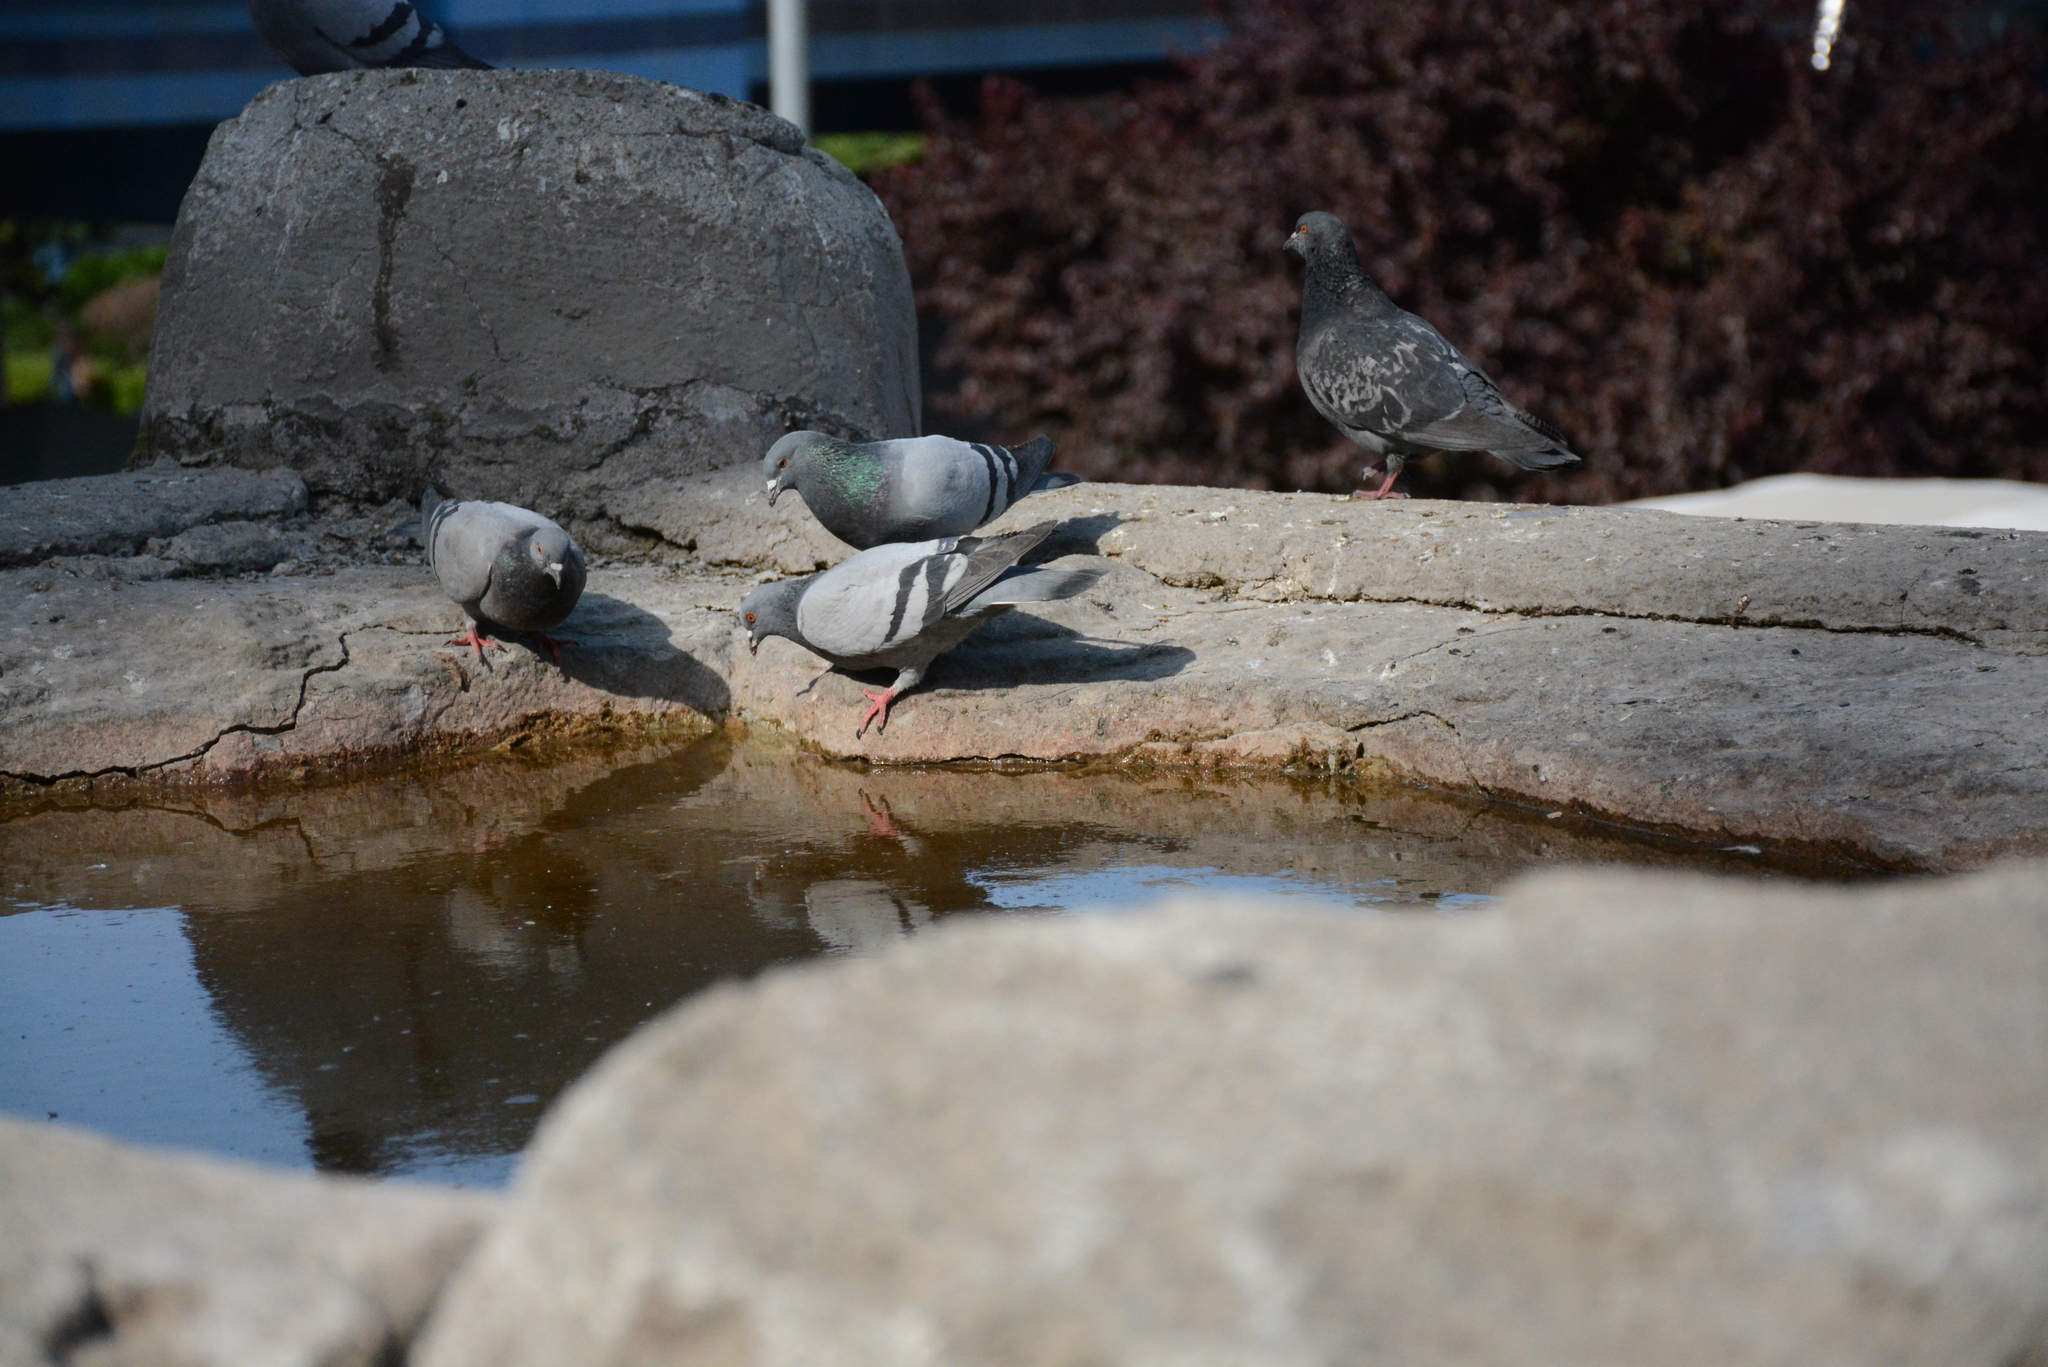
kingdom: Animalia
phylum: Chordata
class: Aves
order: Columbiformes
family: Columbidae
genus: Columba
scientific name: Columba livia
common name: Rock pigeon
